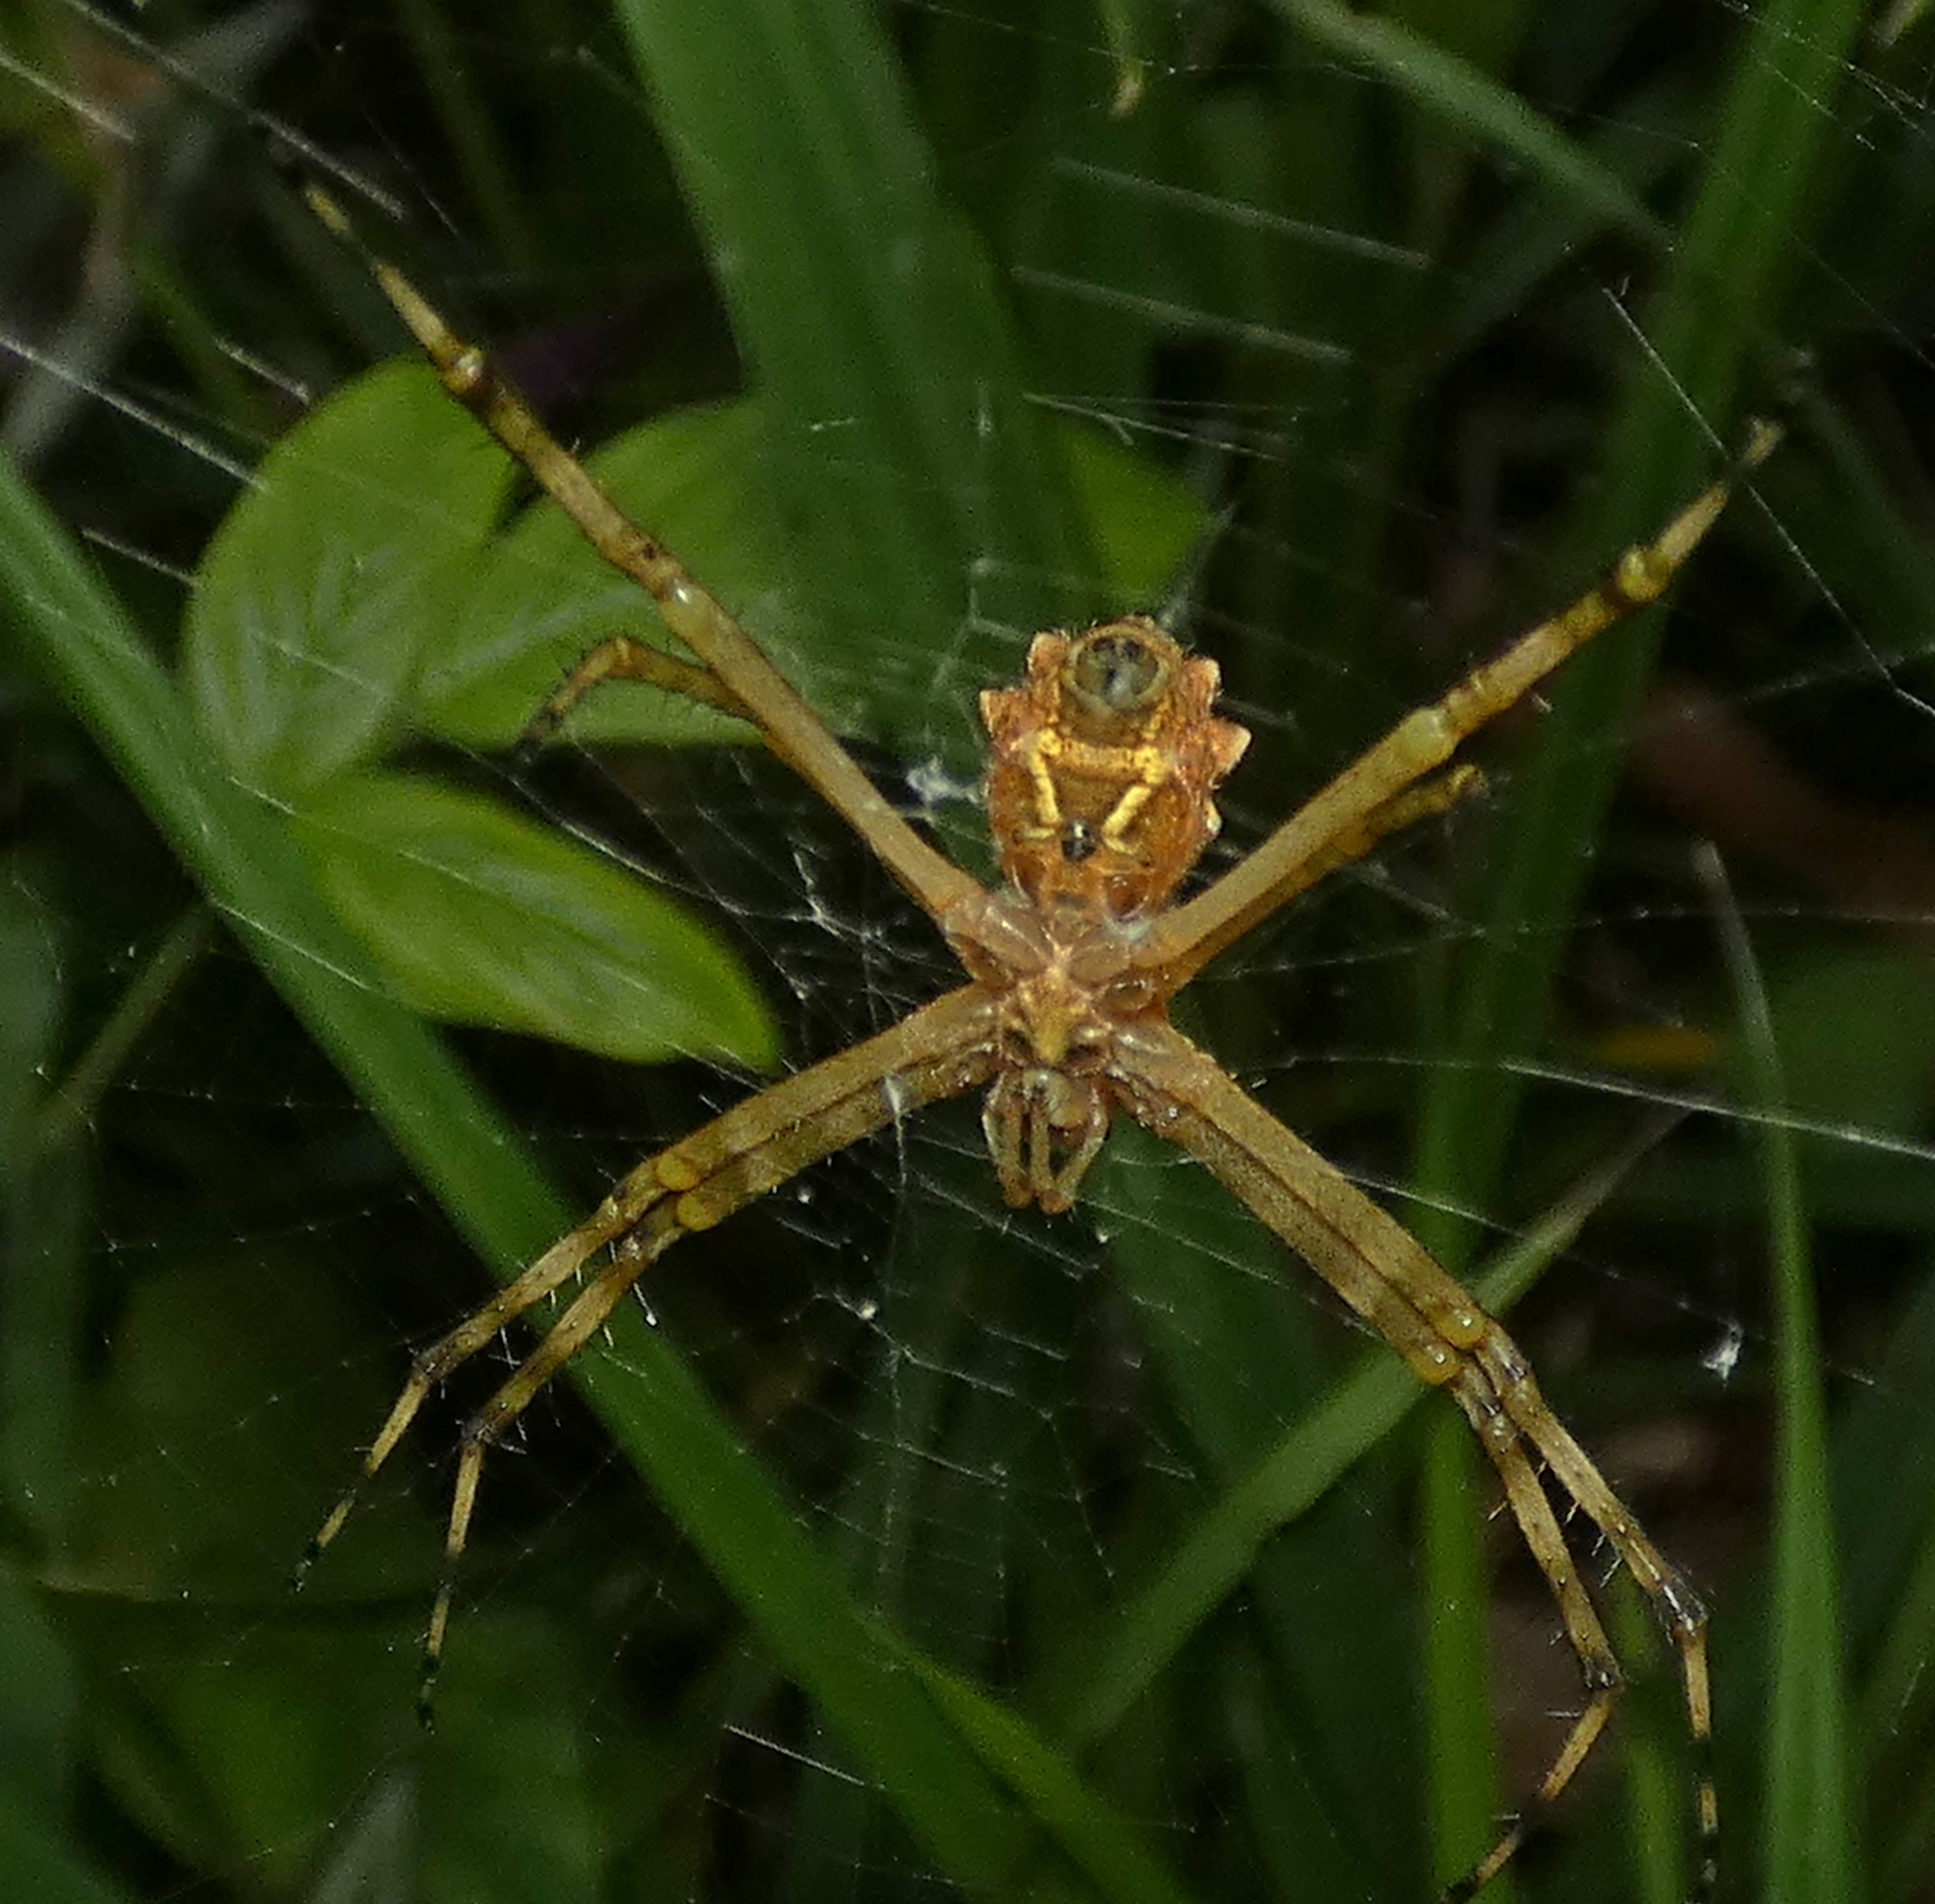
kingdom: Animalia
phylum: Arthropoda
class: Arachnida
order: Araneae
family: Araneidae
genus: Argiope
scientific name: Argiope argentata
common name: Orb weavers
